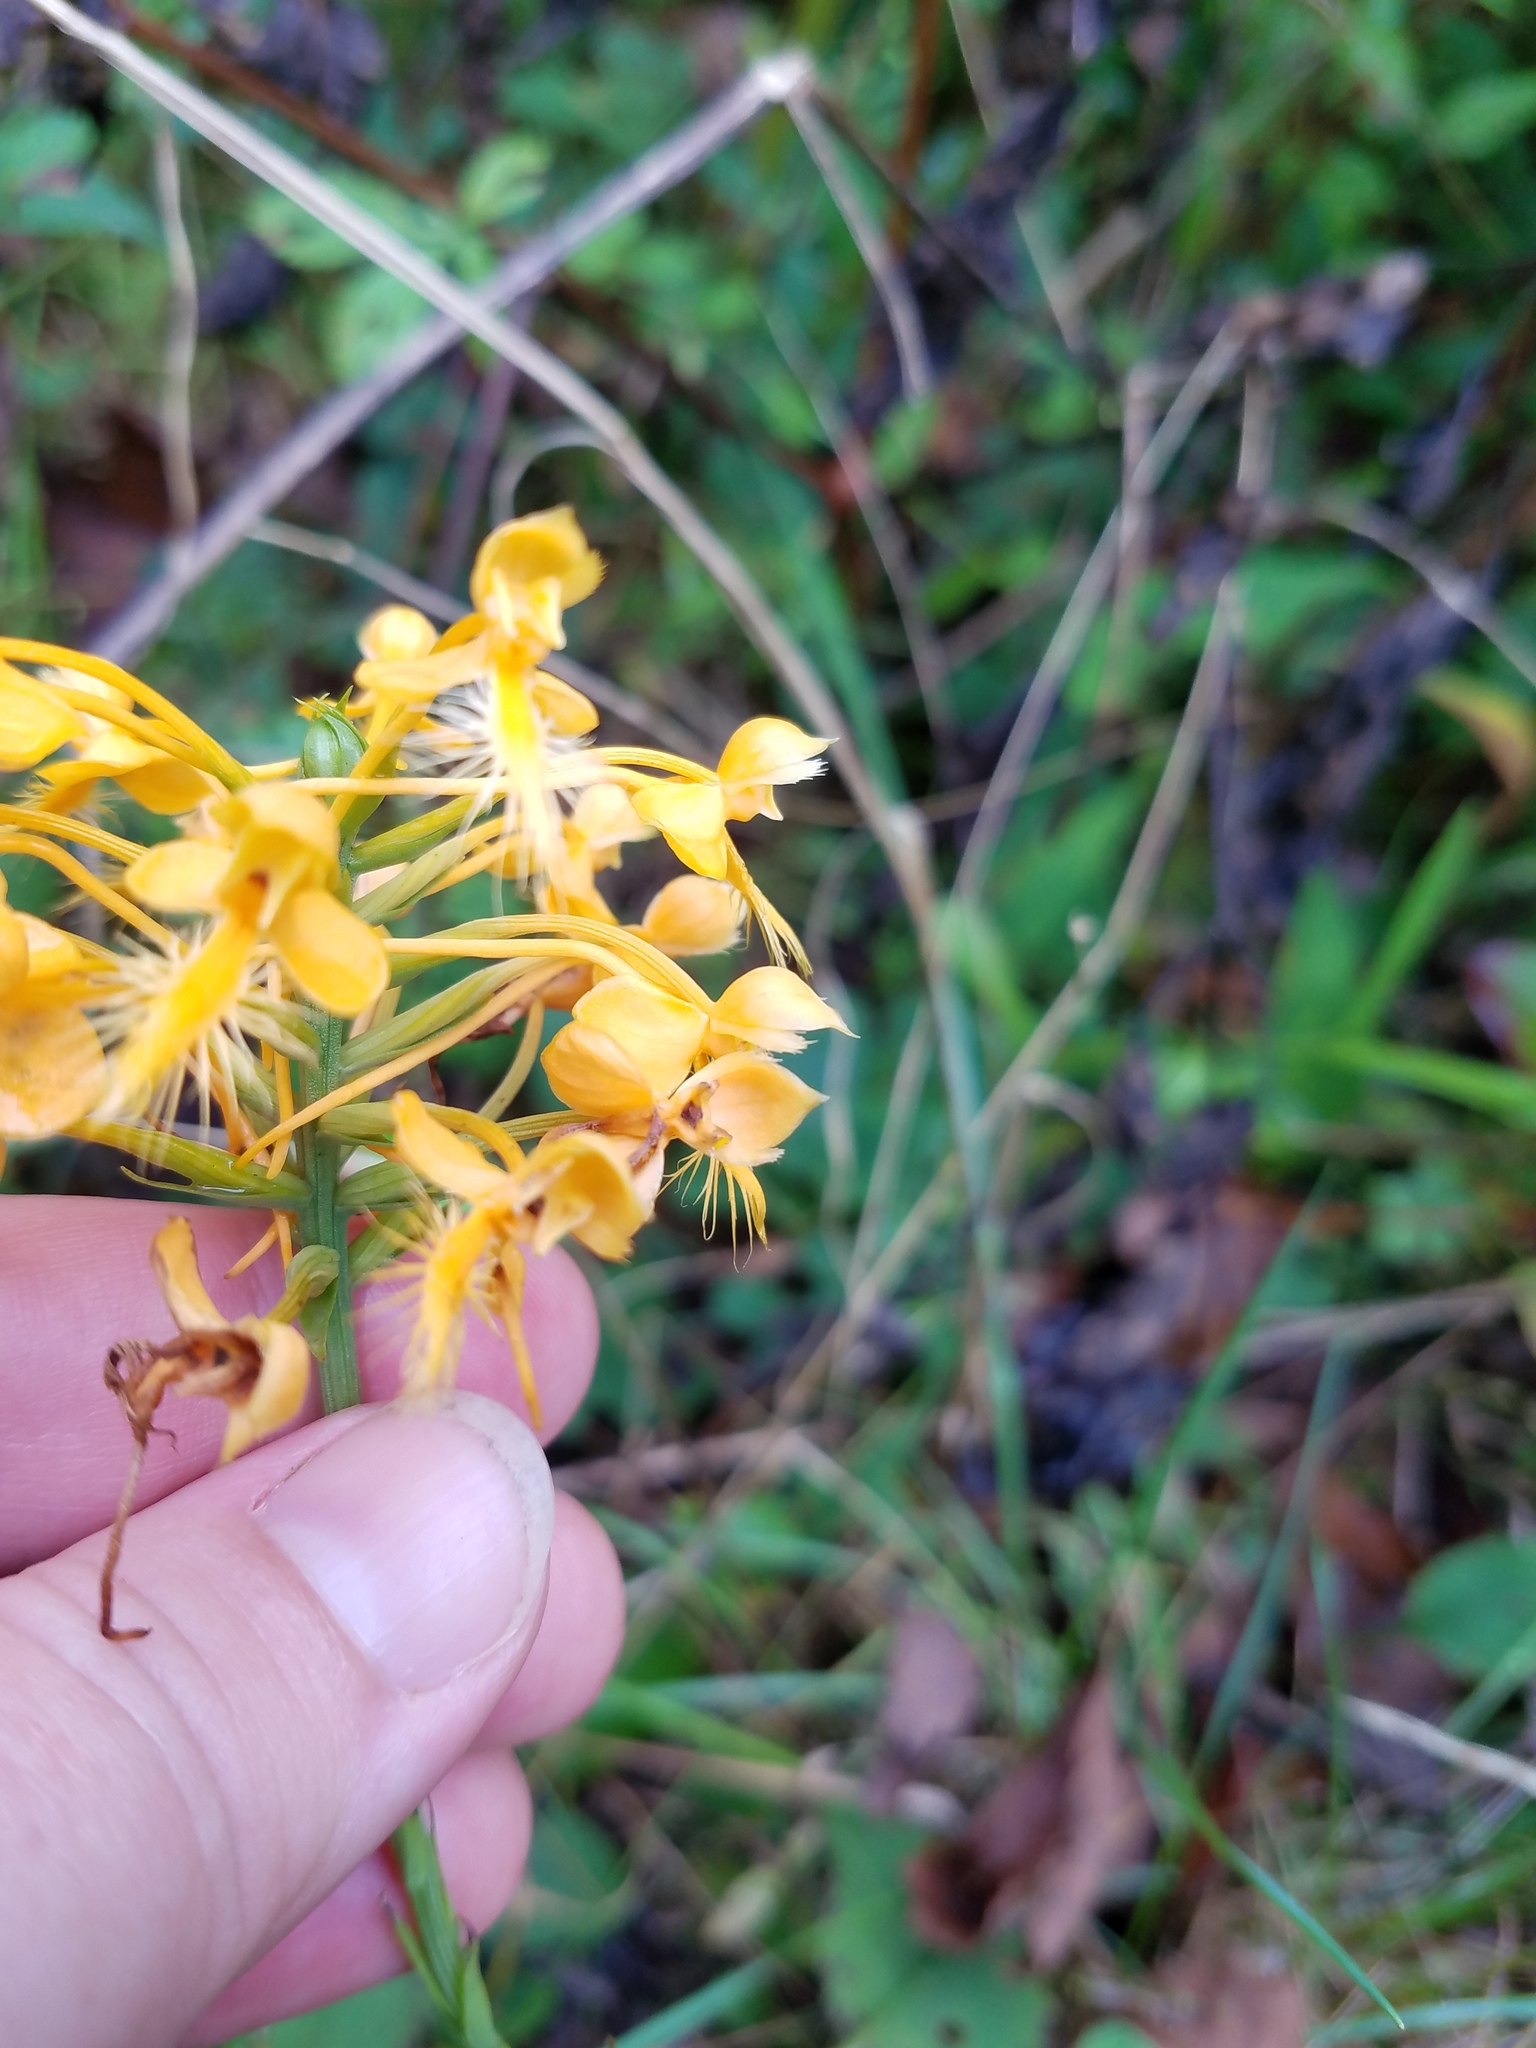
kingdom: Plantae
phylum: Tracheophyta
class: Liliopsida
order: Asparagales
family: Orchidaceae
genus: Platanthera
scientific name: Platanthera ciliaris
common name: Yellow fringed orchid
